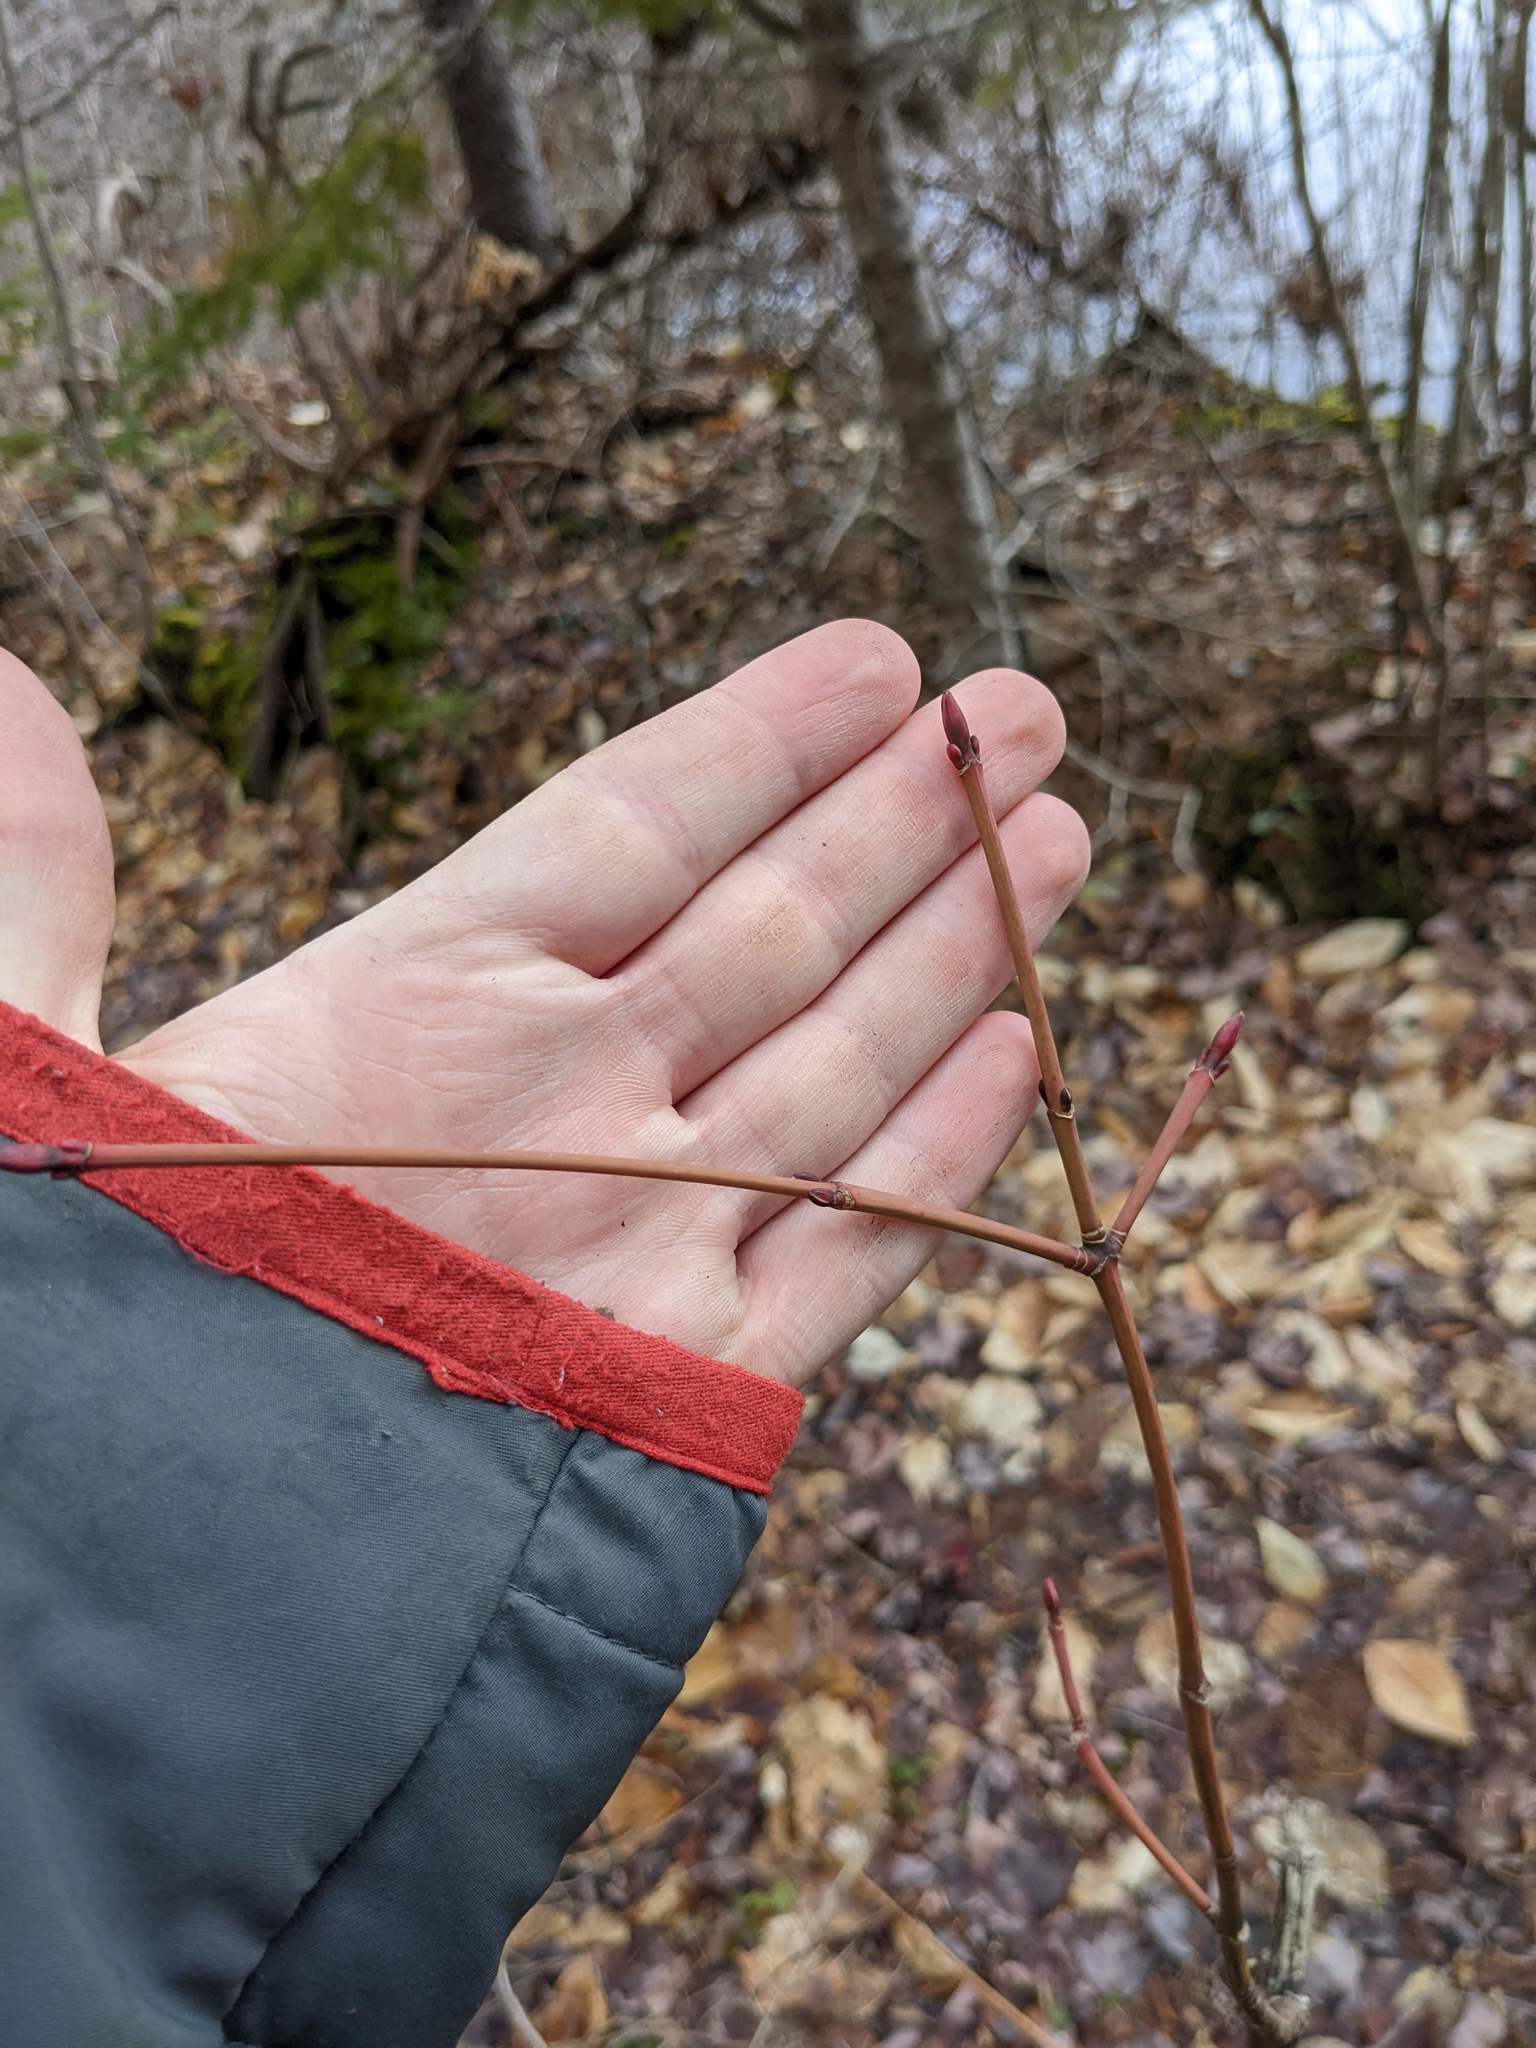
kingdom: Plantae
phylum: Tracheophyta
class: Magnoliopsida
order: Sapindales
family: Sapindaceae
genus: Acer
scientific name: Acer pensylvanicum
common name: Moosewood
